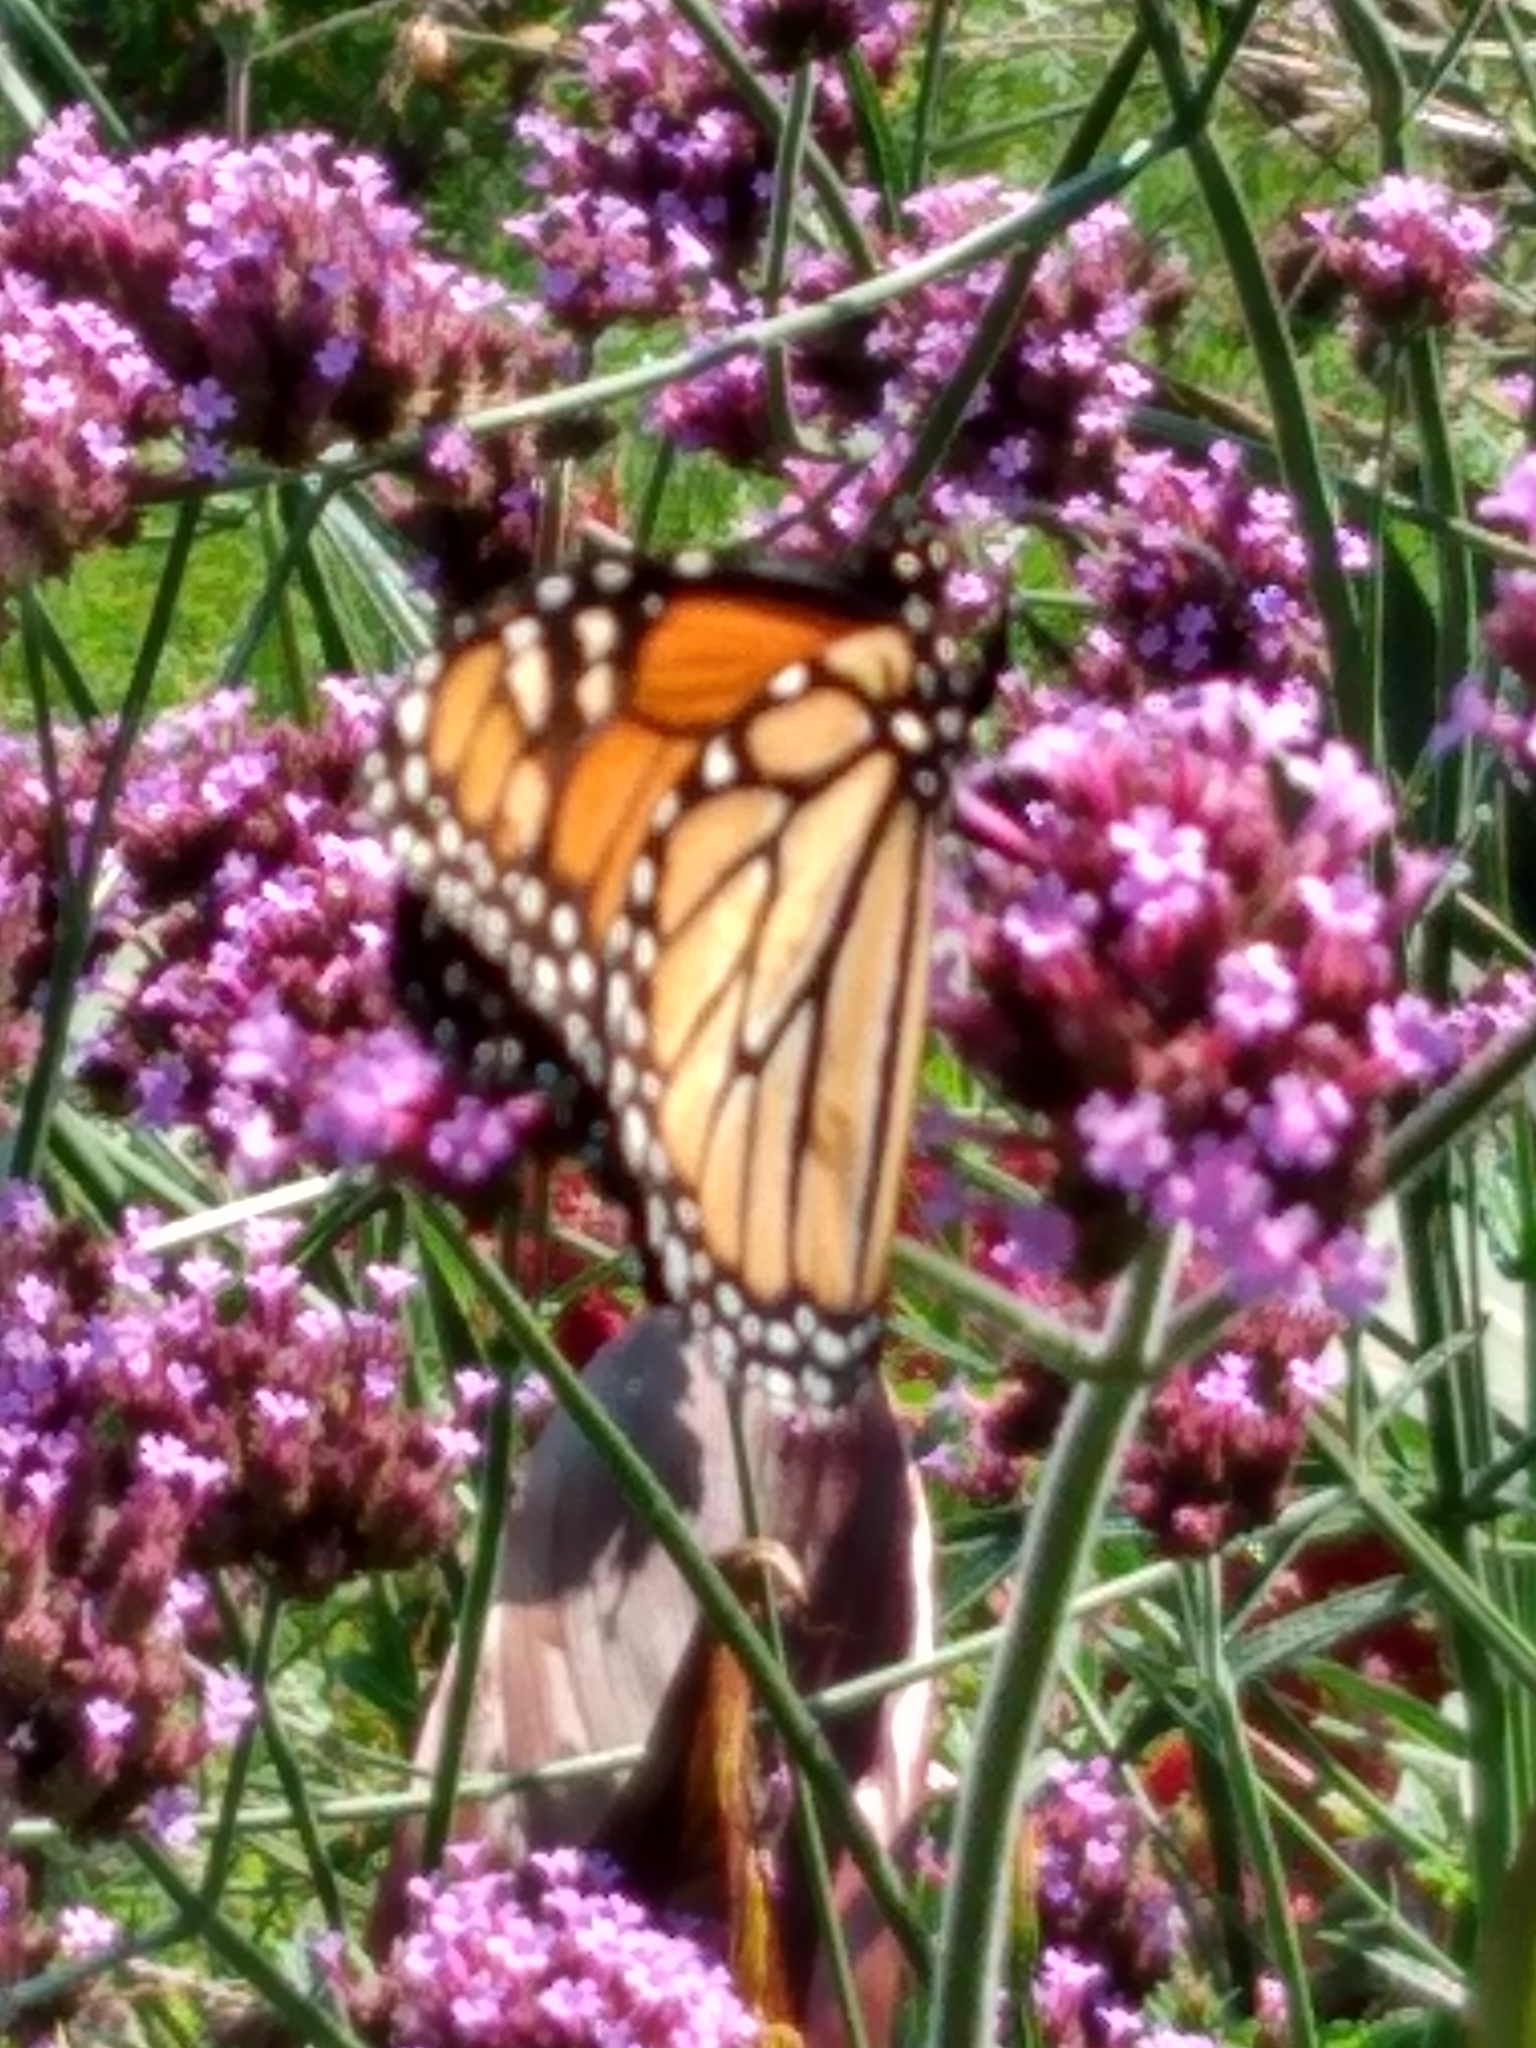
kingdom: Animalia
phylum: Arthropoda
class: Insecta
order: Lepidoptera
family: Nymphalidae
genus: Danaus
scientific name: Danaus plexippus
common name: Monarch
